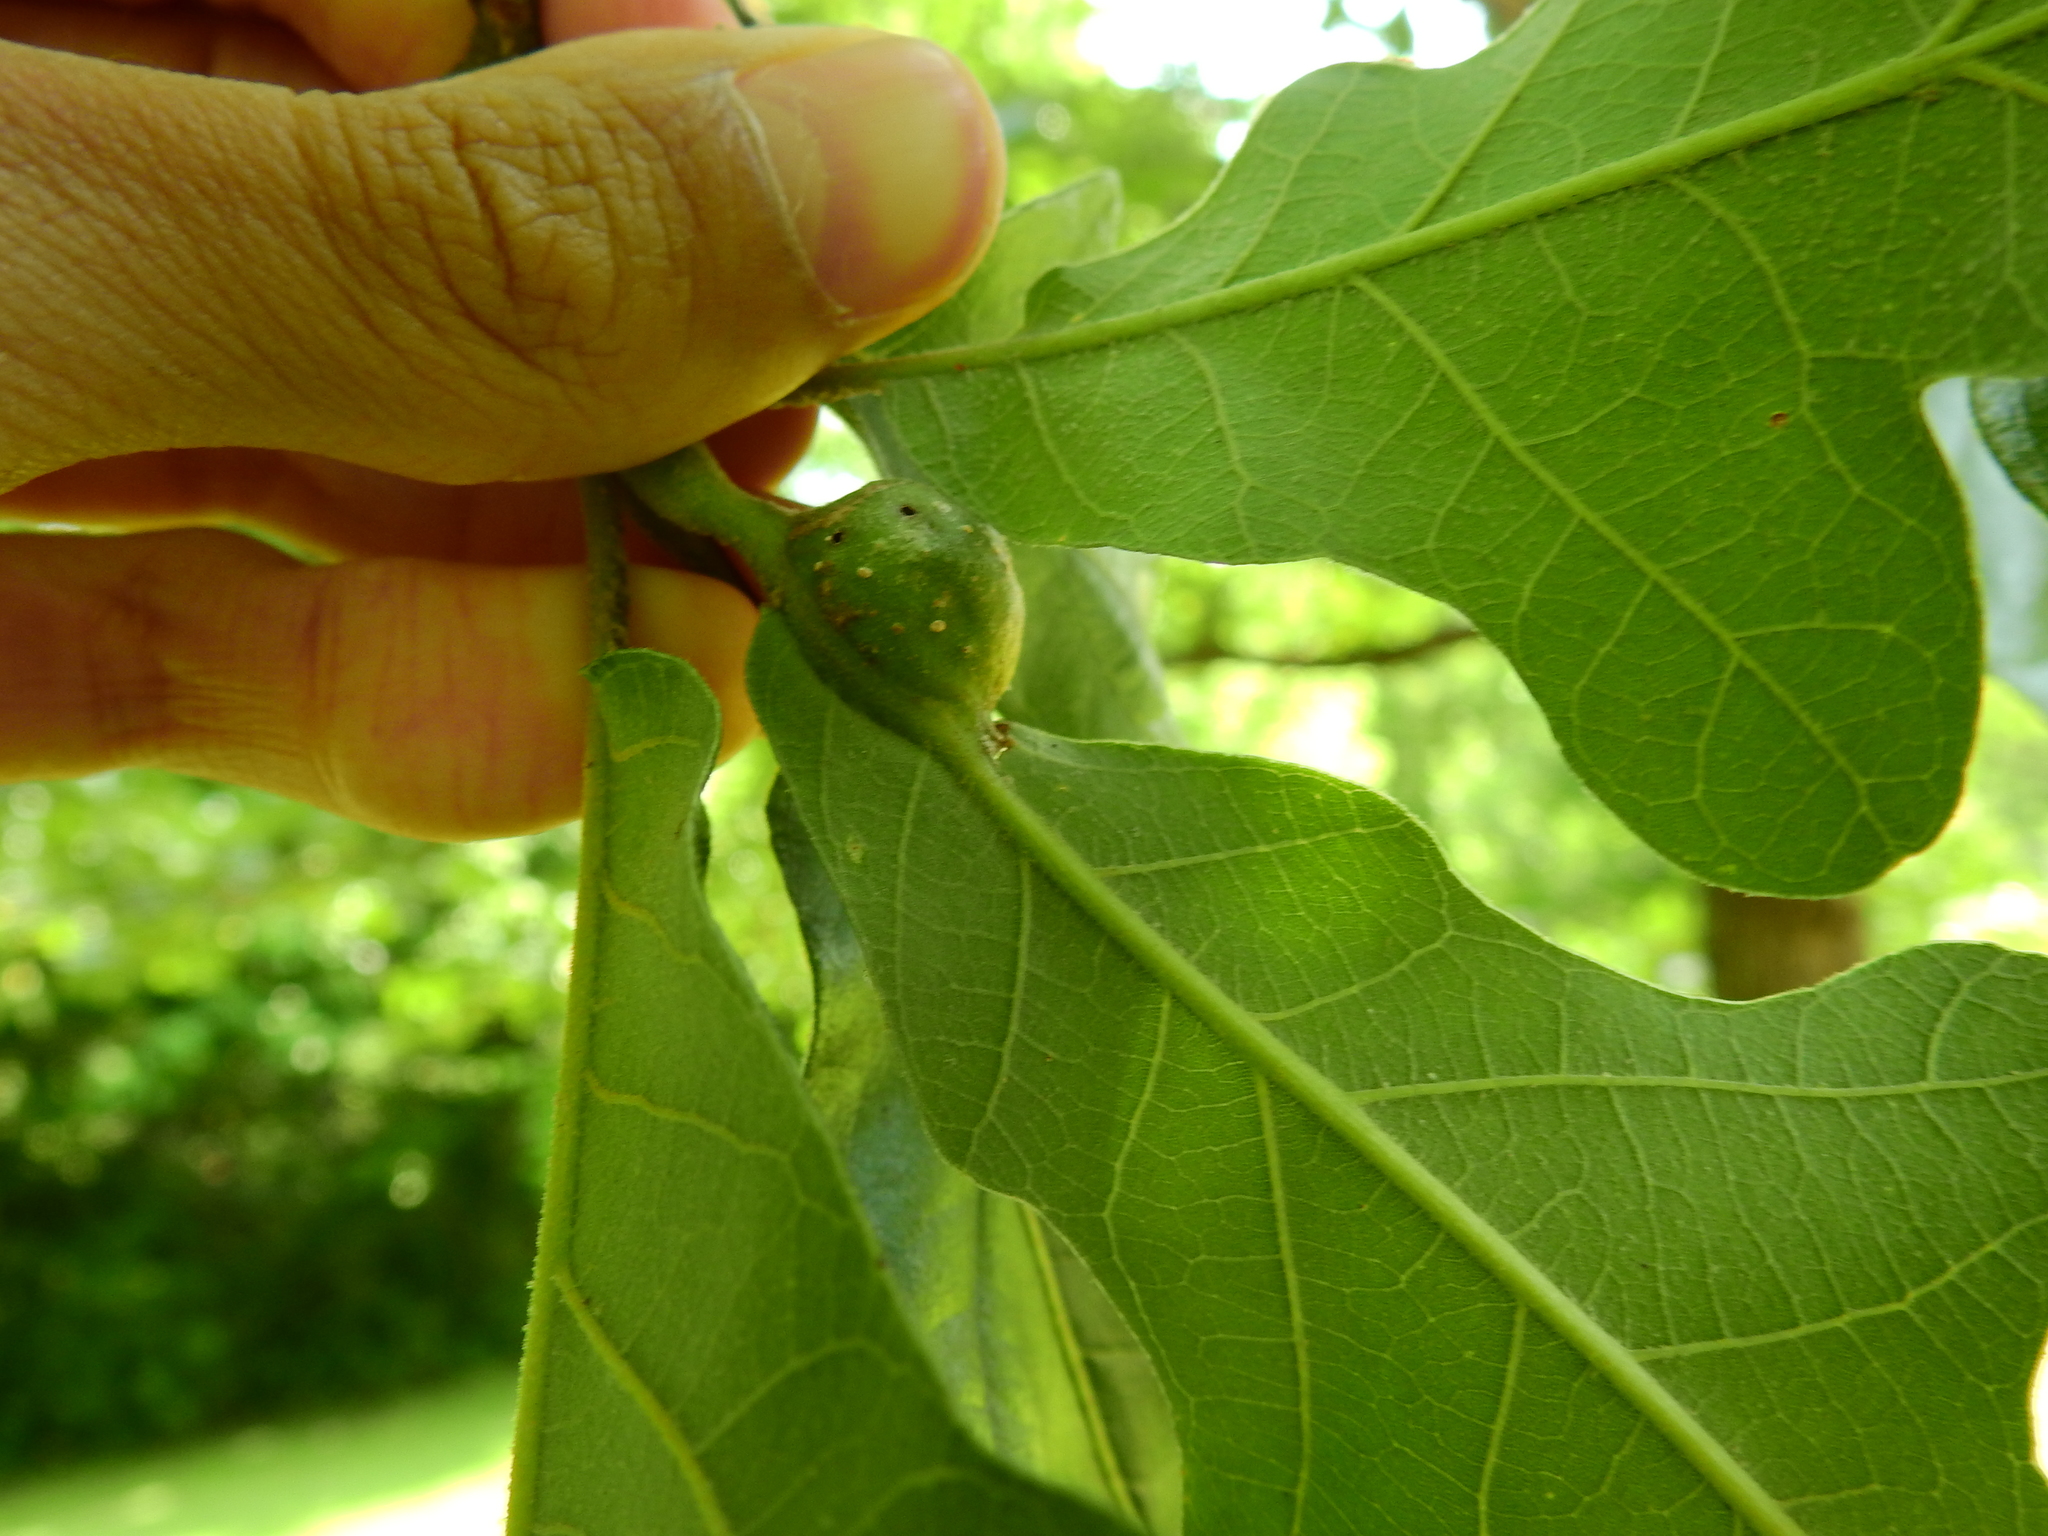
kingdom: Animalia
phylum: Arthropoda
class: Insecta
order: Hymenoptera
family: Cynipidae
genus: Andricus
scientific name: Andricus
